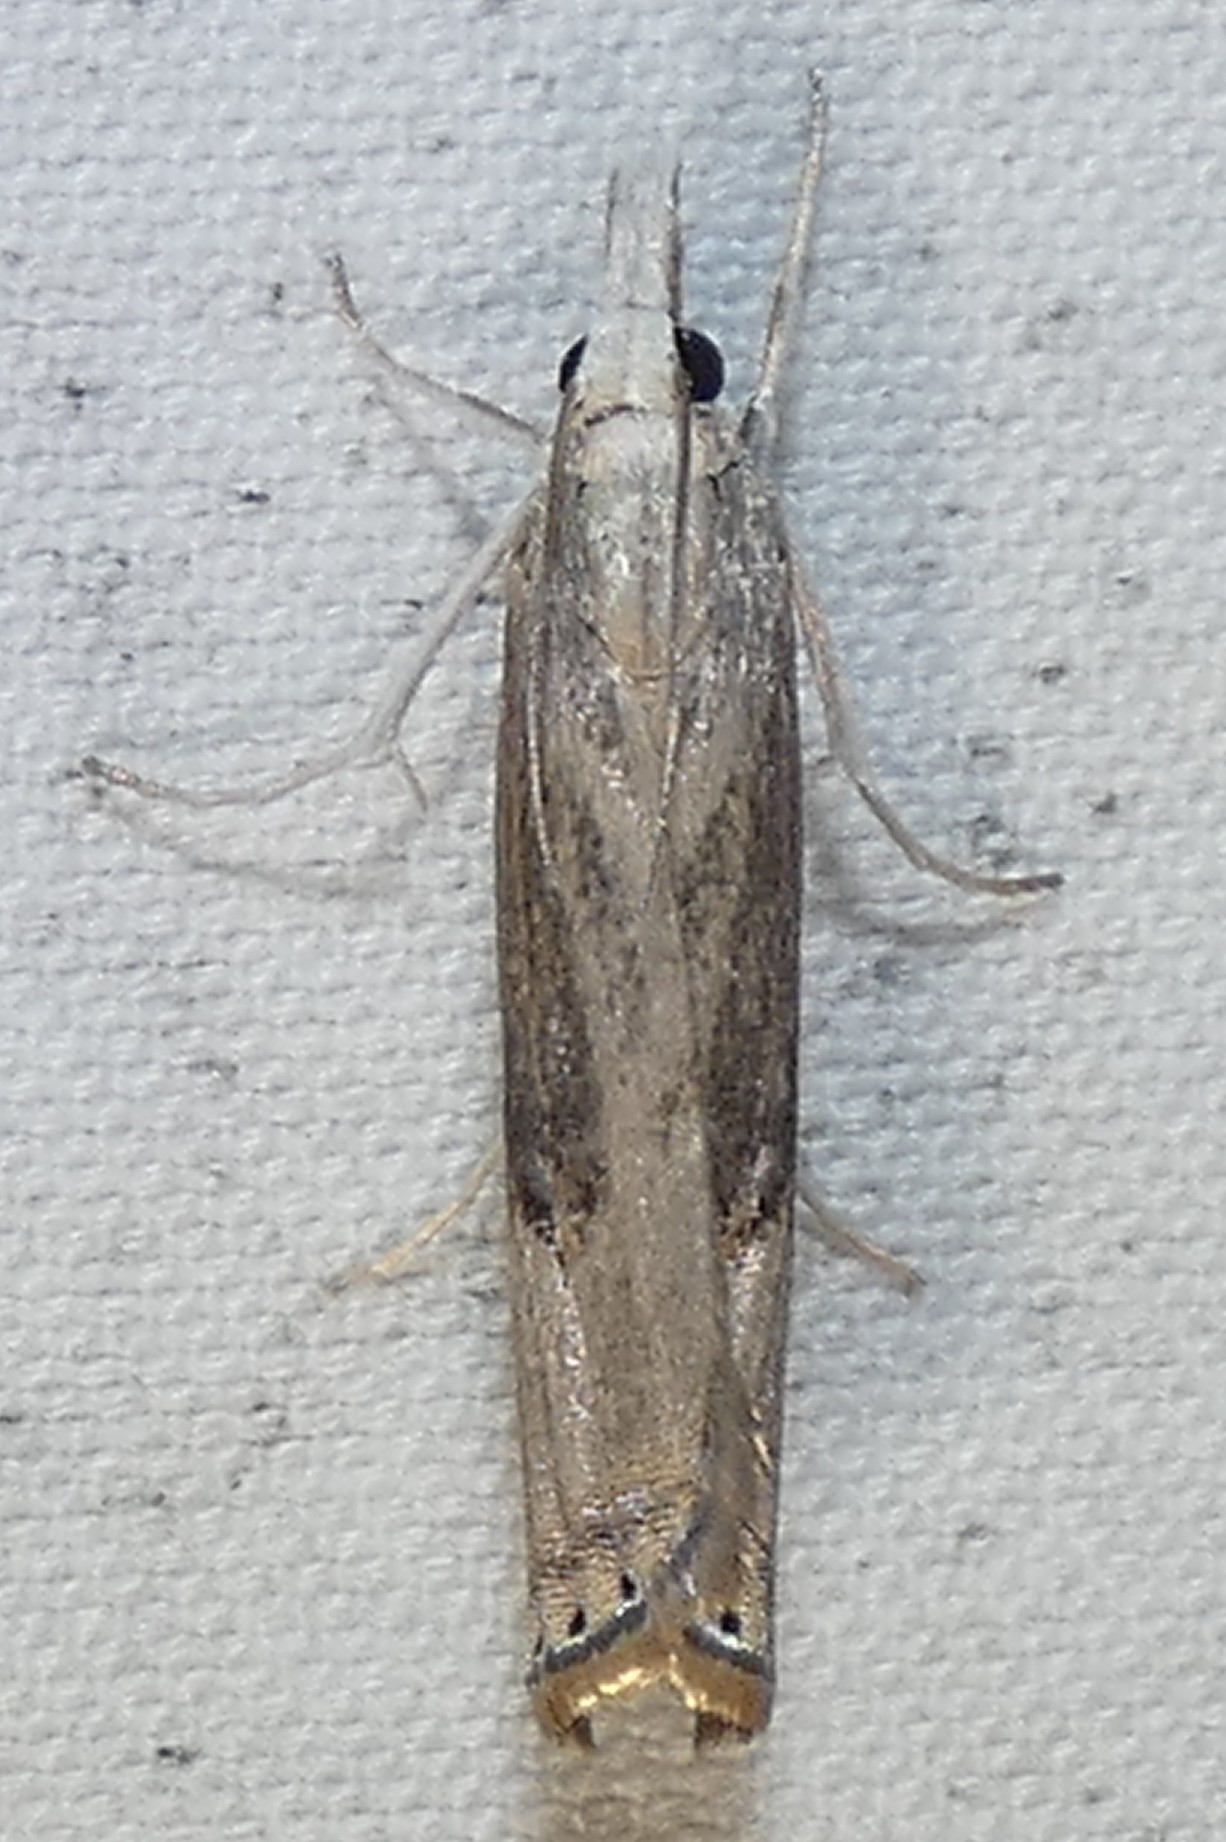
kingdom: Animalia
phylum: Arthropoda
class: Insecta
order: Lepidoptera
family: Crambidae
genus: Parapediasia
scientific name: Parapediasia teterellus
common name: Bluegrass webworm moth
